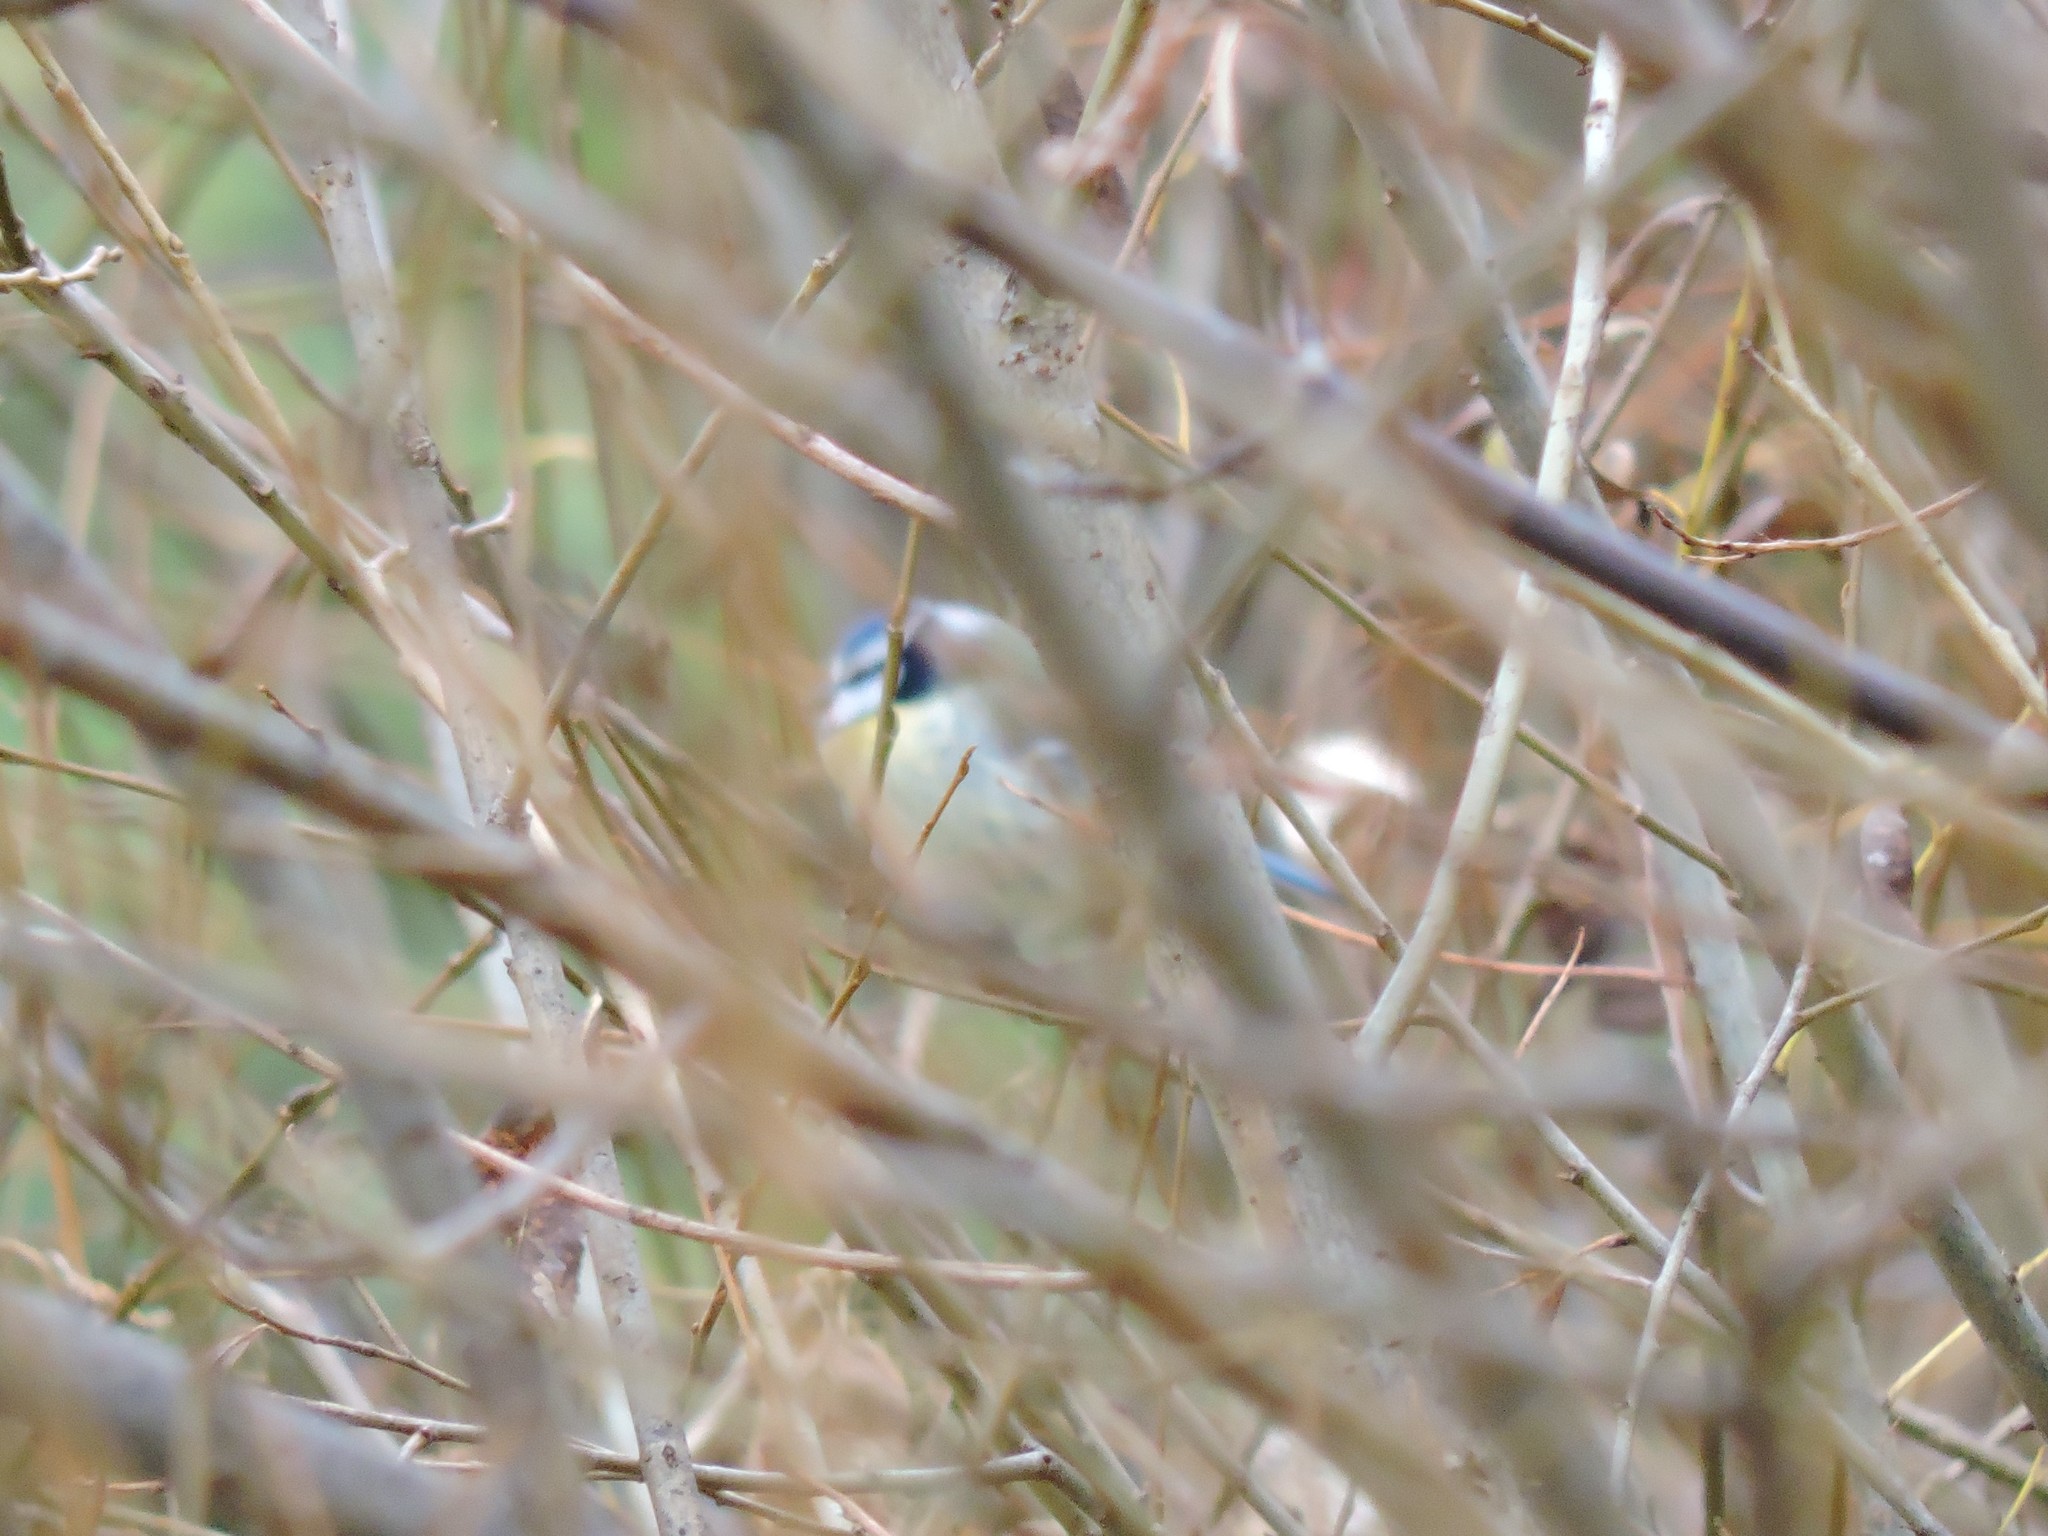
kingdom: Animalia
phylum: Chordata
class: Aves
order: Passeriformes
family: Paridae
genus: Cyanistes
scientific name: Cyanistes caeruleus
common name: Eurasian blue tit
